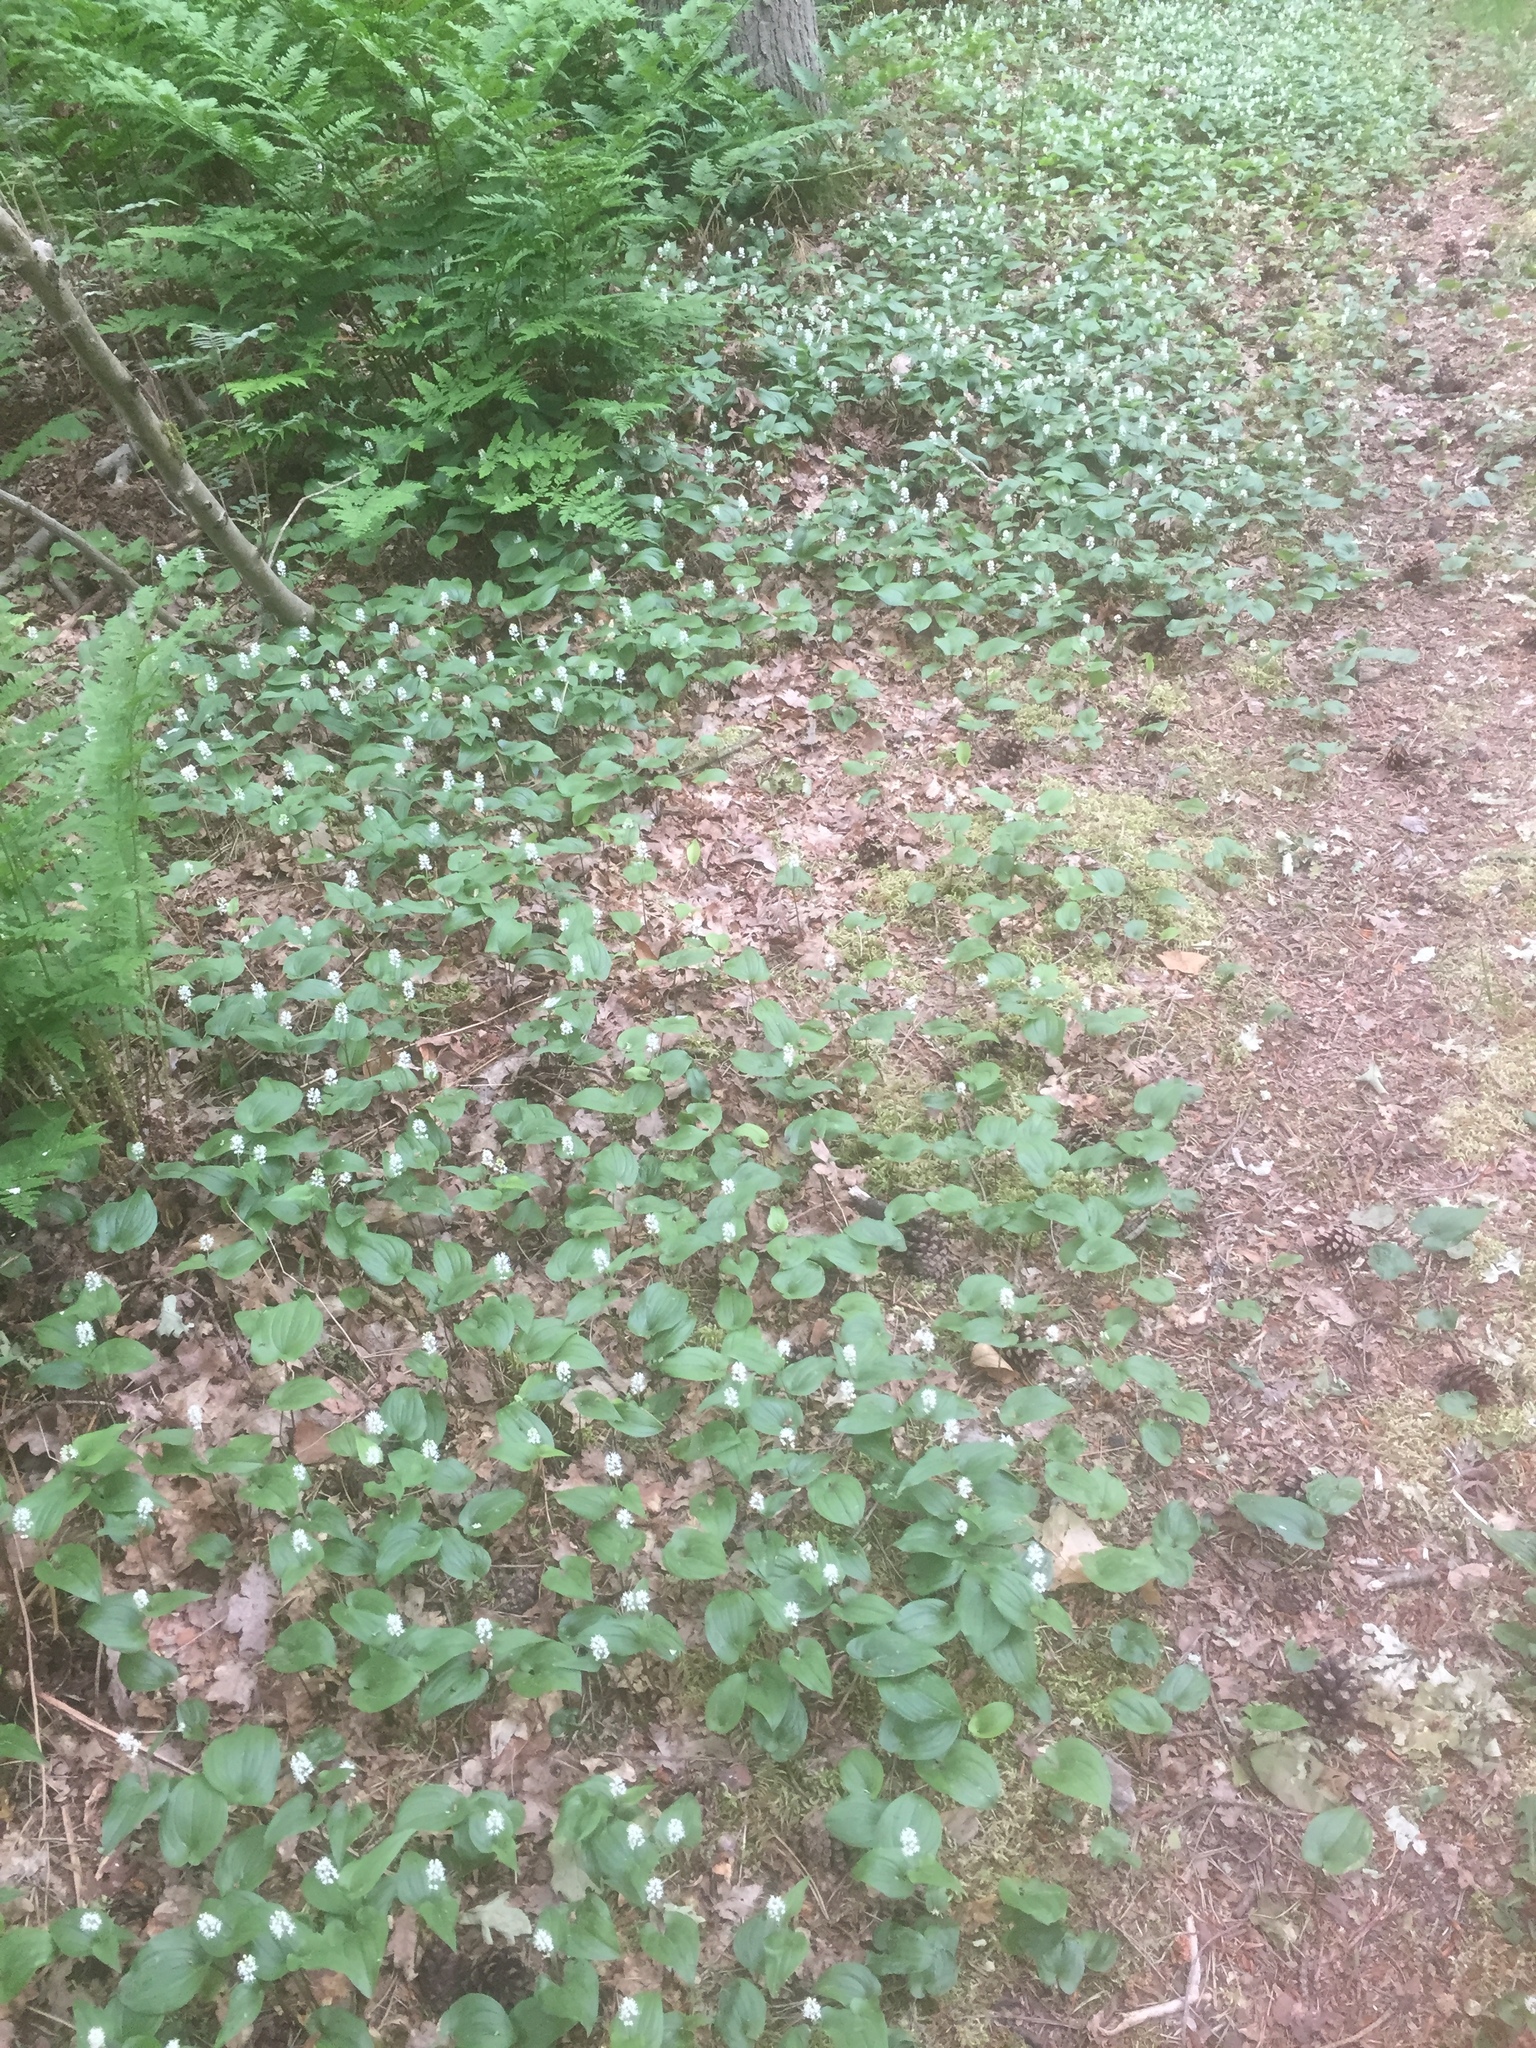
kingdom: Plantae
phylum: Tracheophyta
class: Liliopsida
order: Asparagales
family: Asparagaceae
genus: Maianthemum
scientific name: Maianthemum bifolium
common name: May lily
